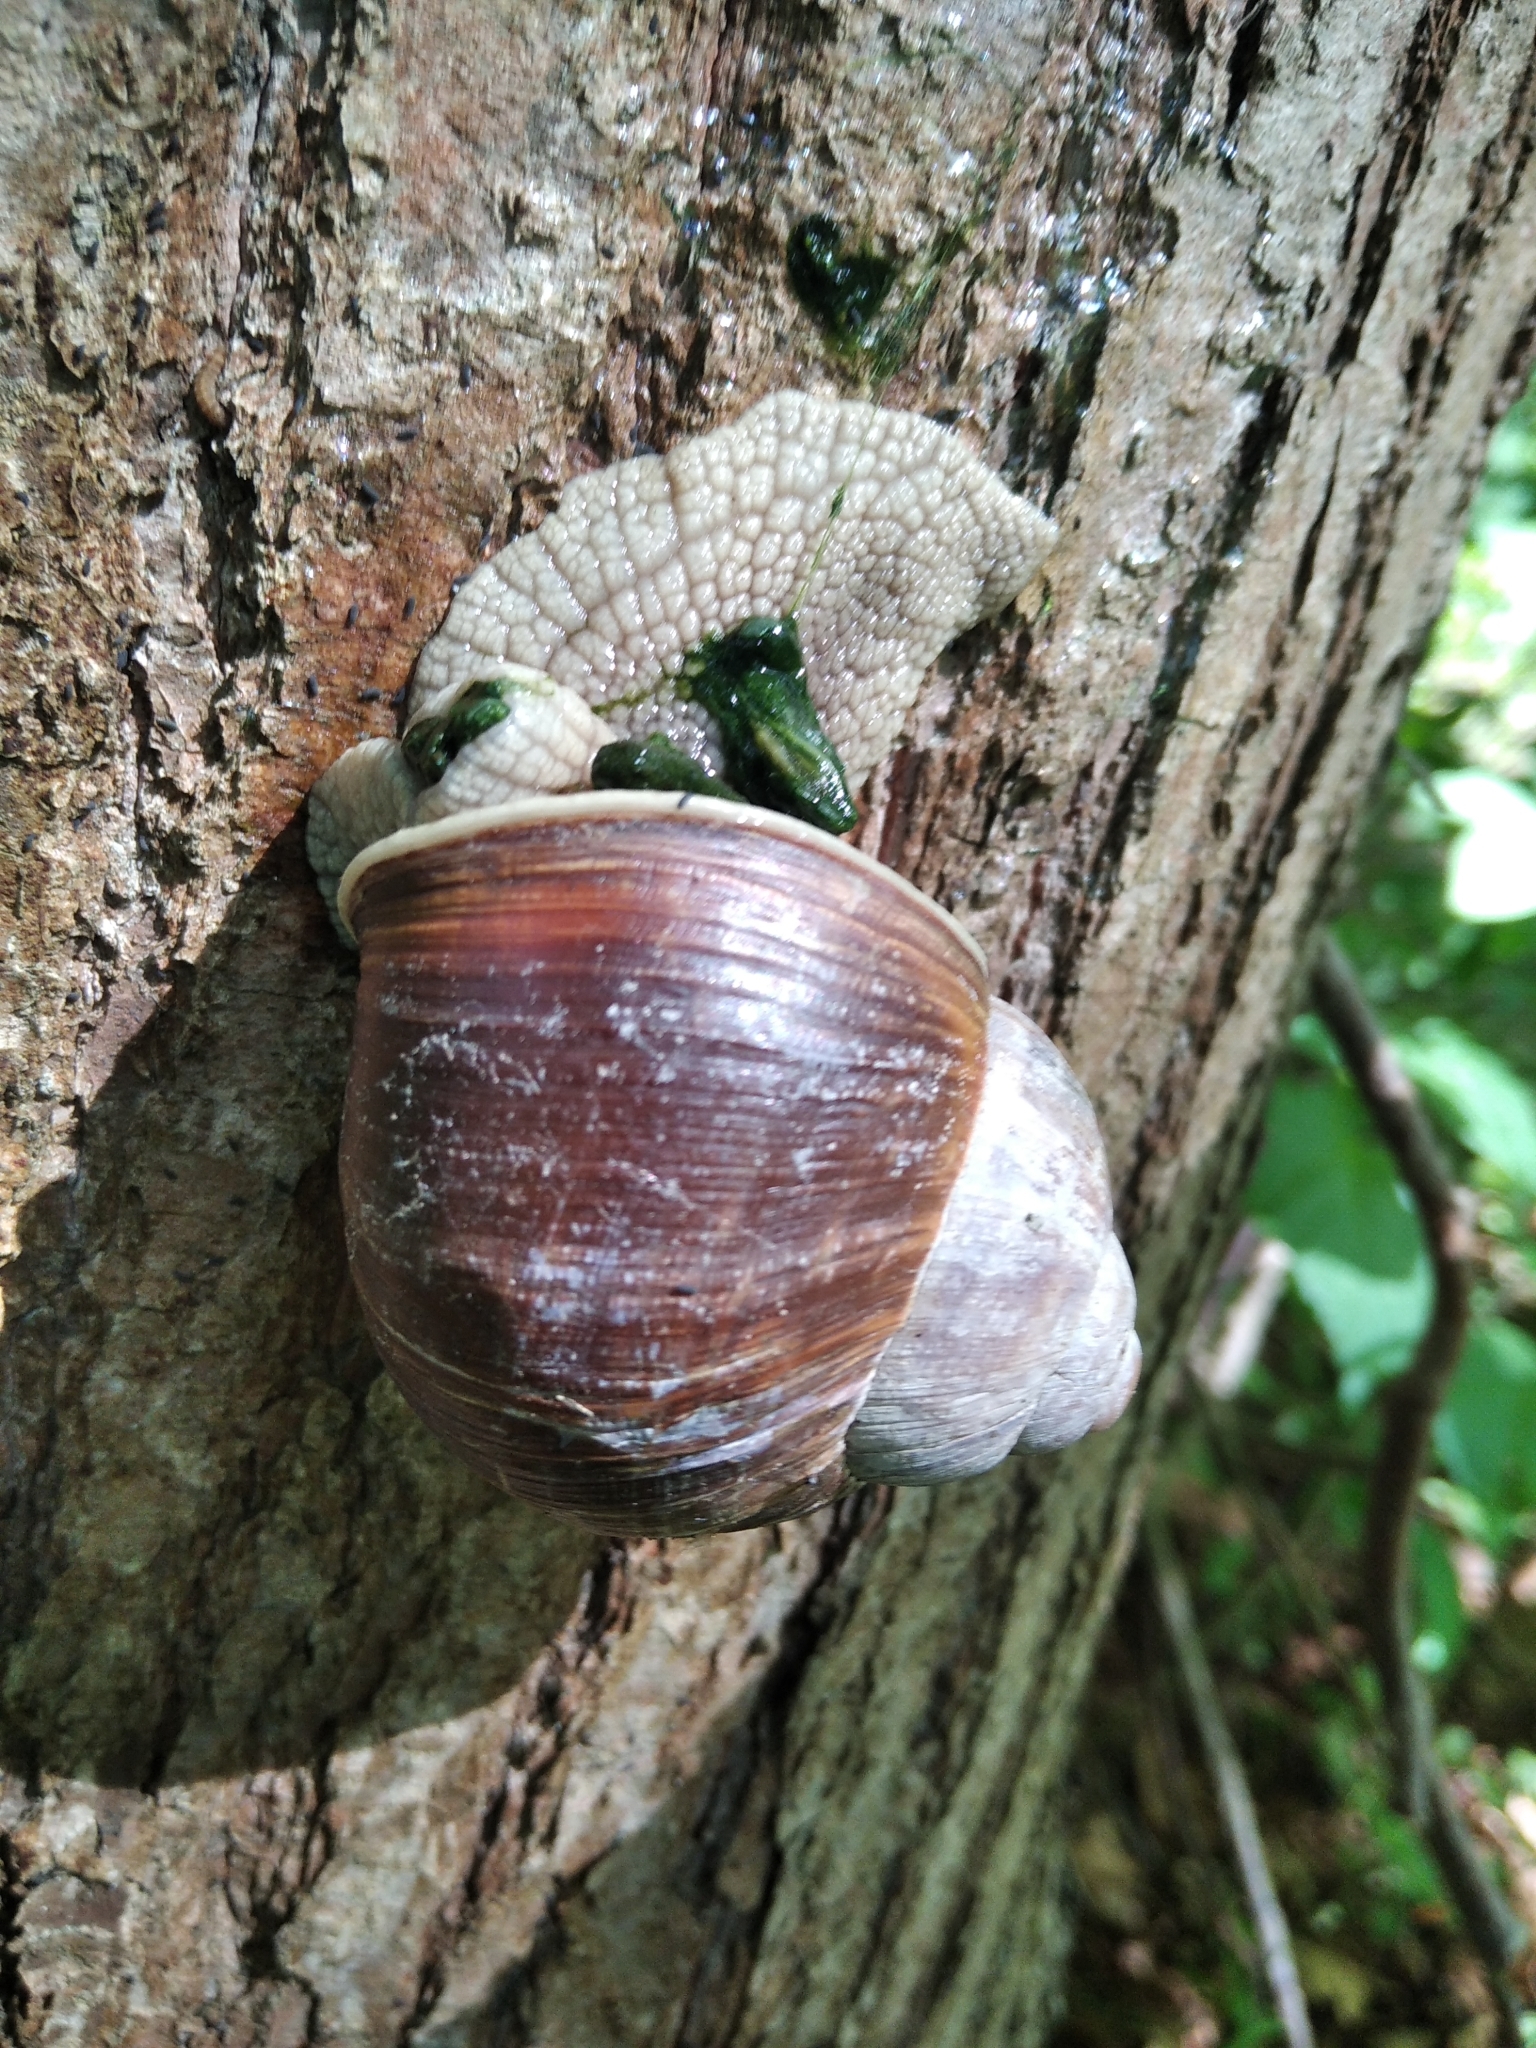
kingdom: Animalia
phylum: Mollusca
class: Gastropoda
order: Stylommatophora
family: Helicidae
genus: Helix
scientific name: Helix pomatia
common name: Roman snail
